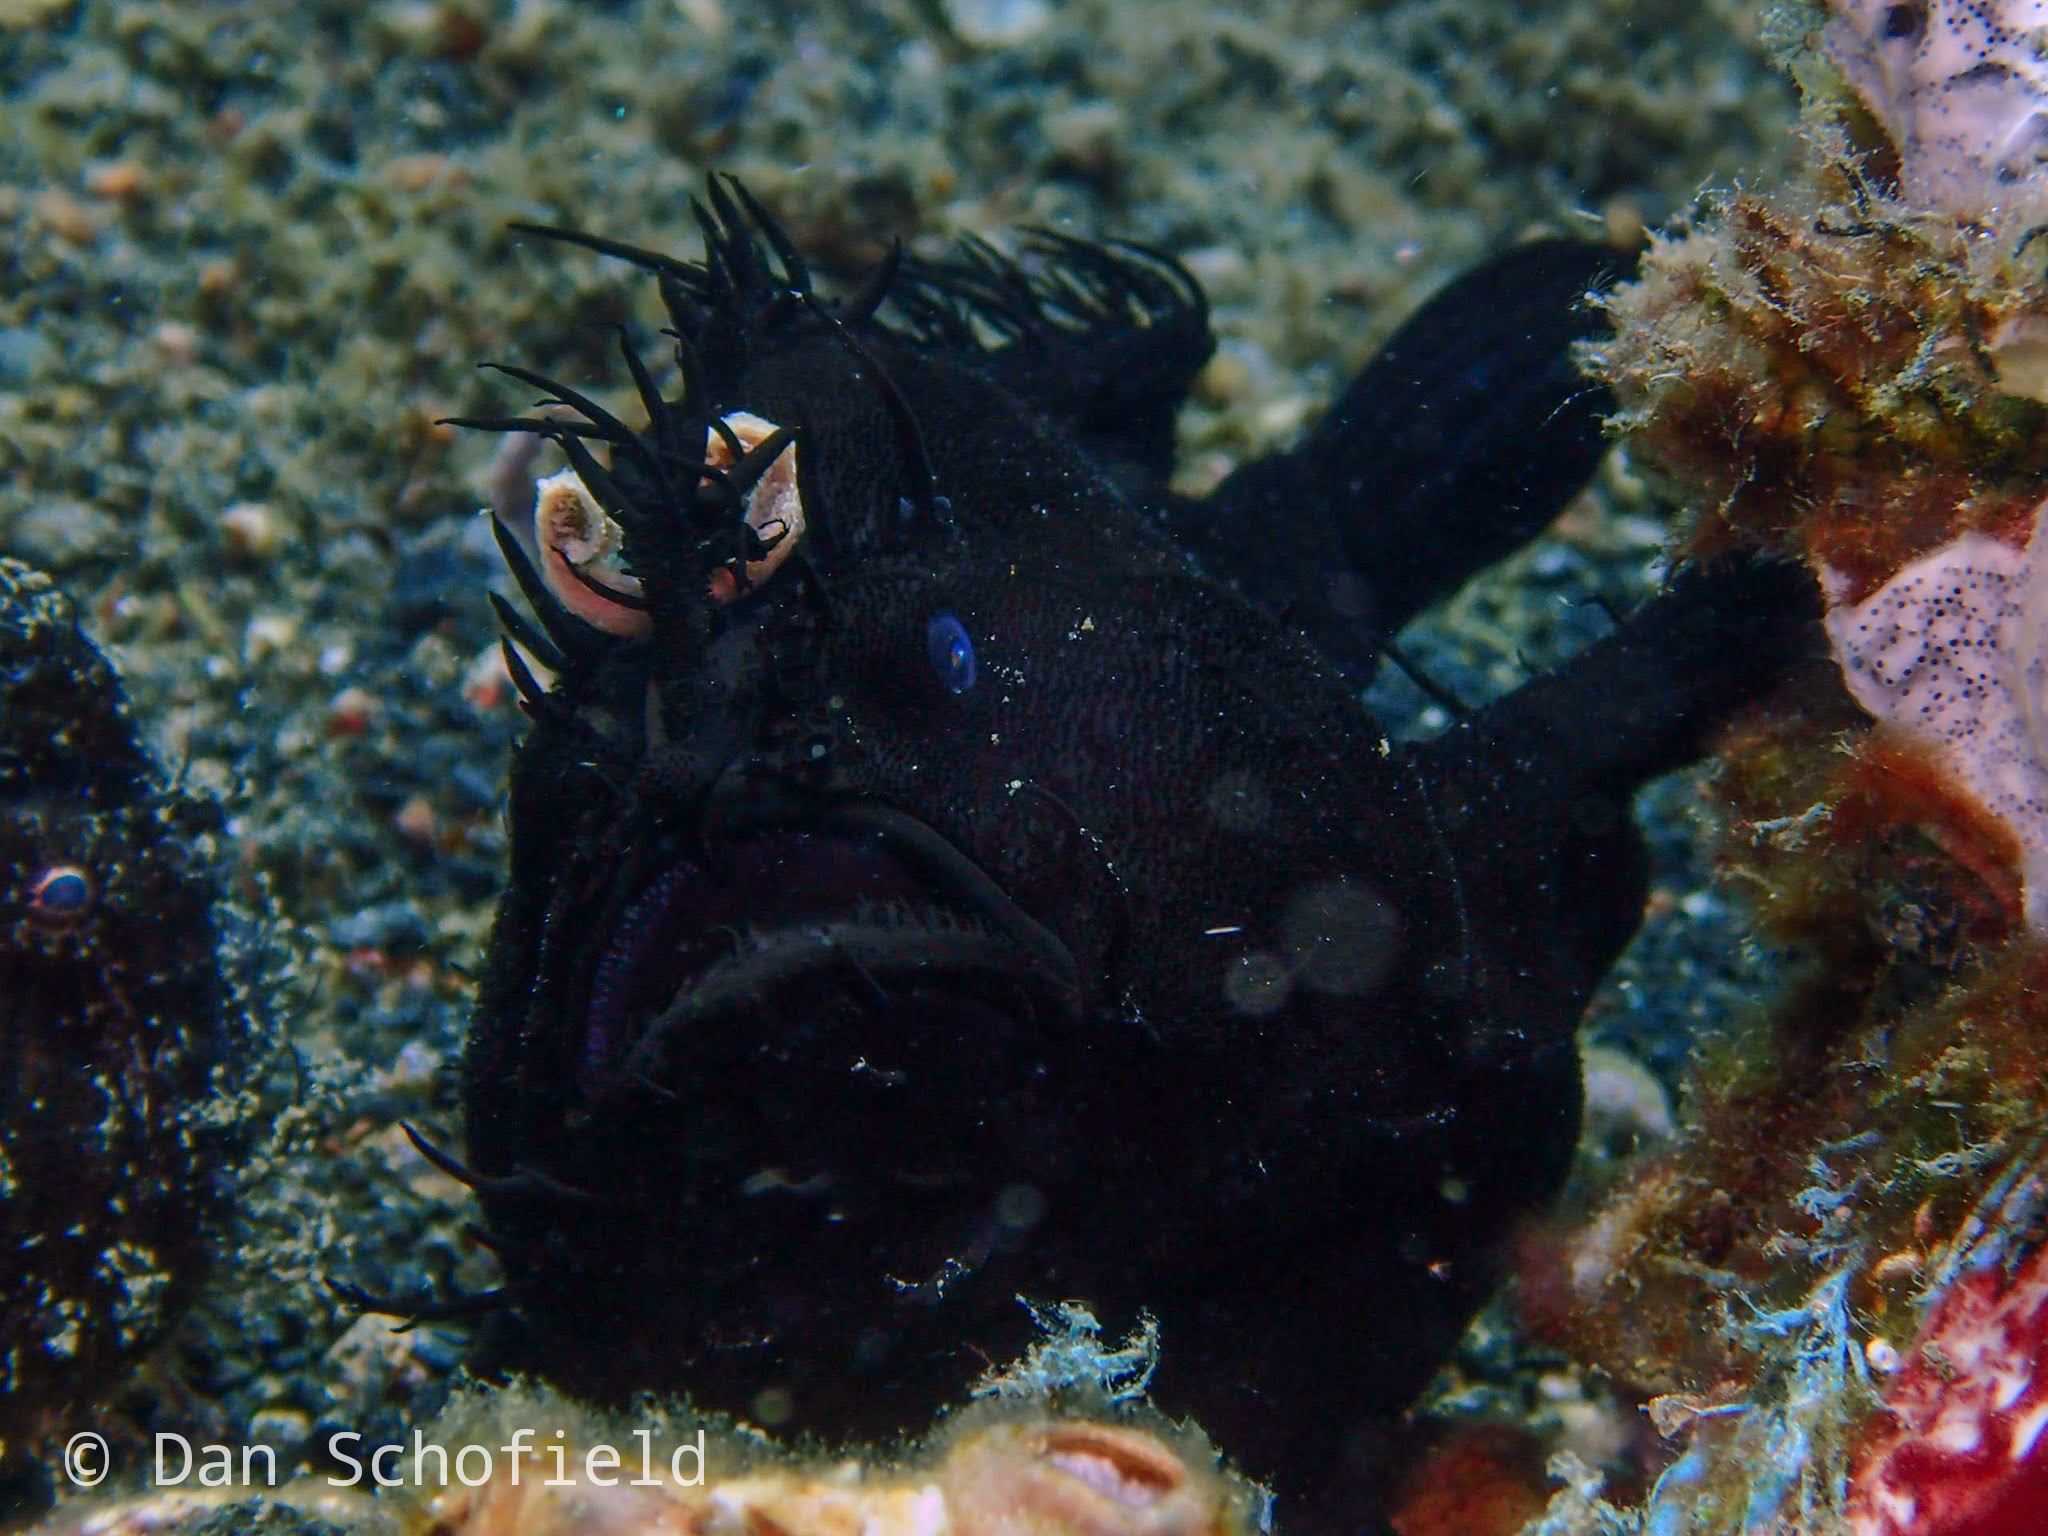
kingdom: Animalia
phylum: Chordata
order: Lophiiformes
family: Antennariidae
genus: Antennarius
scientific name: Antennarius striatus
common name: Striated frogfish
